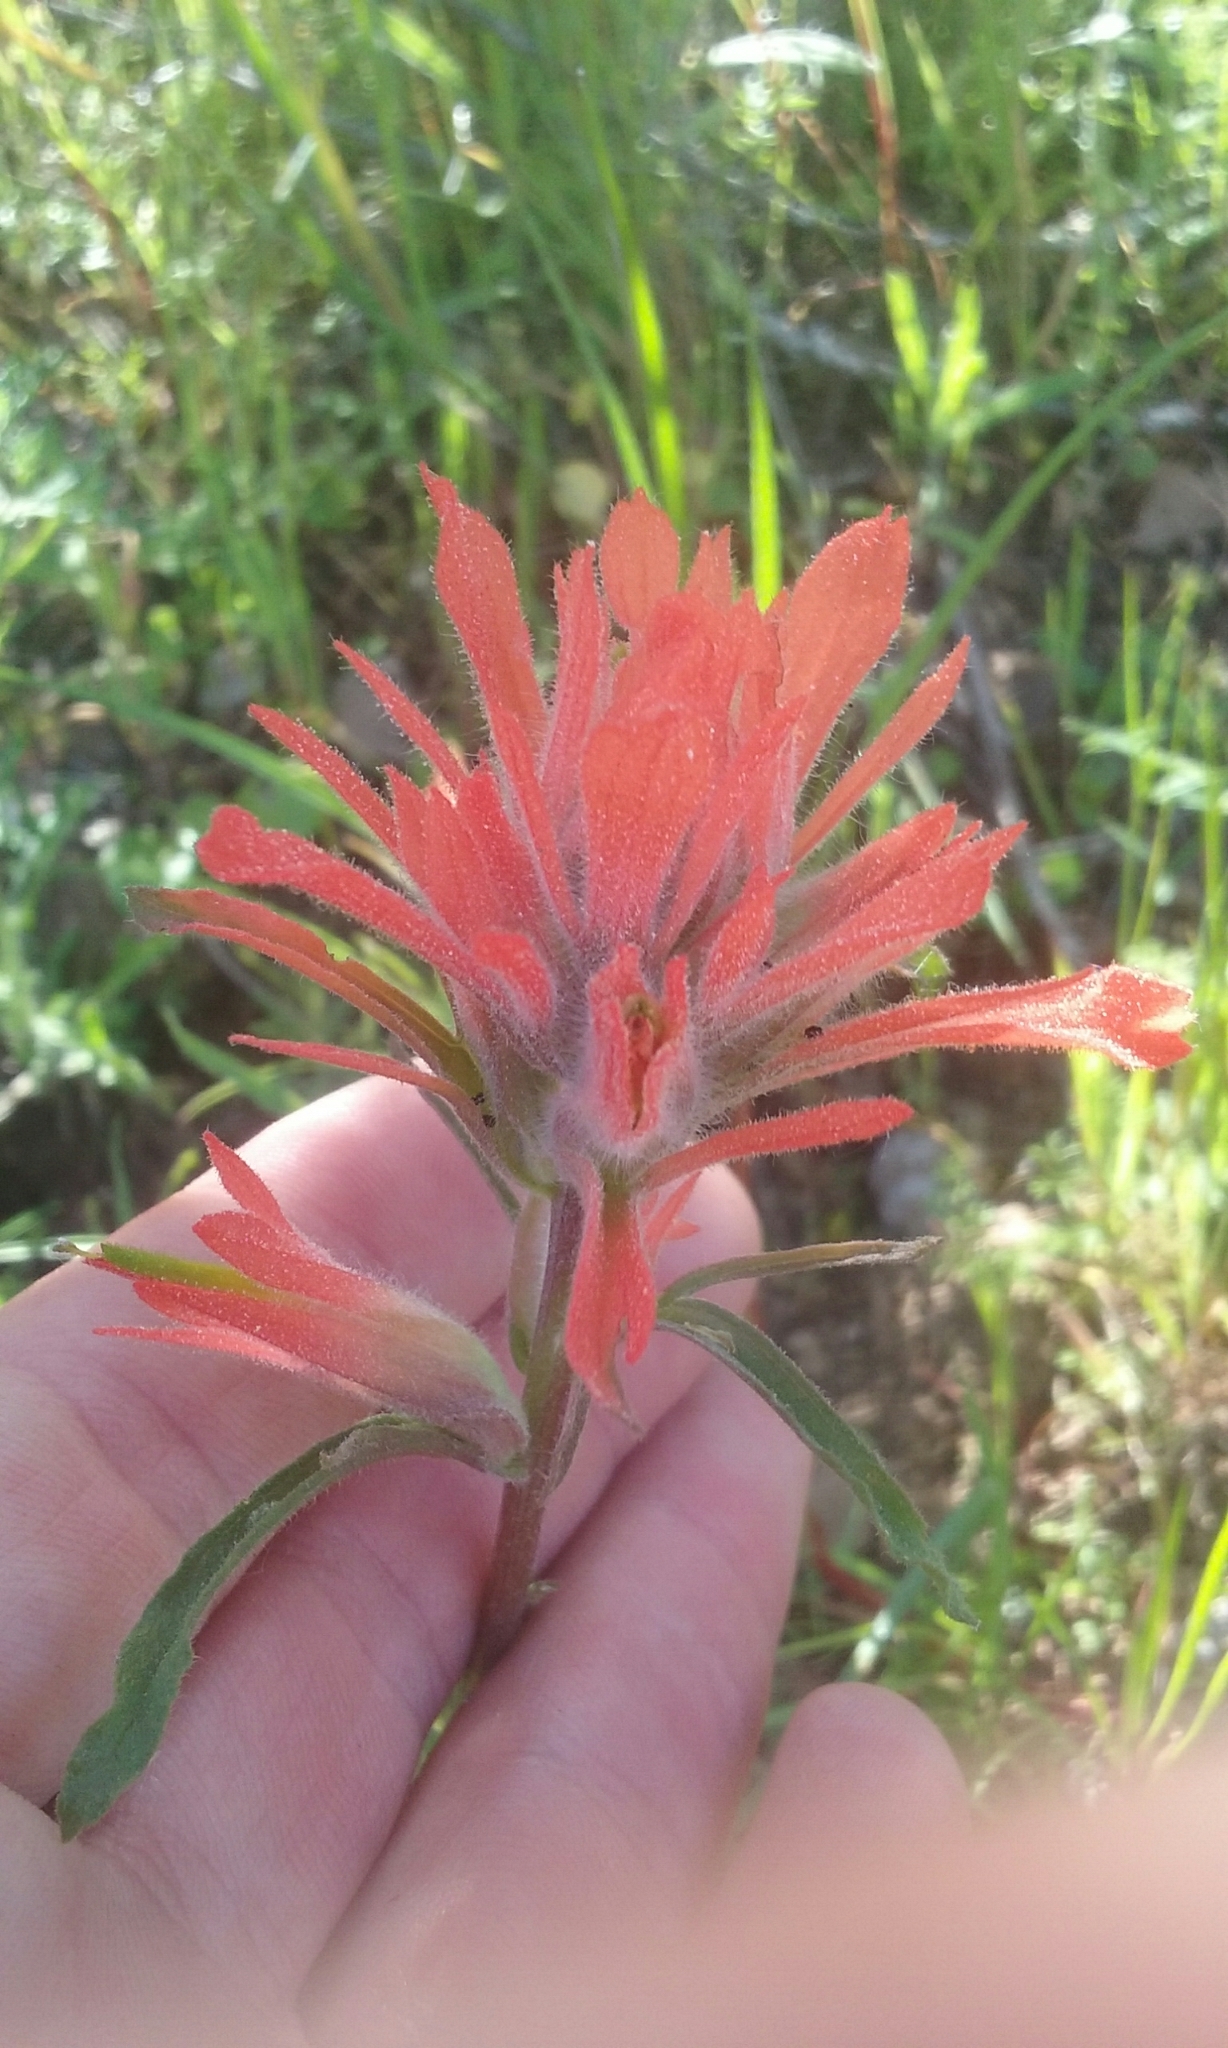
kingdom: Plantae
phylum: Tracheophyta
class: Magnoliopsida
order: Lamiales
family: Orobanchaceae
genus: Castilleja
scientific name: Castilleja affinis
